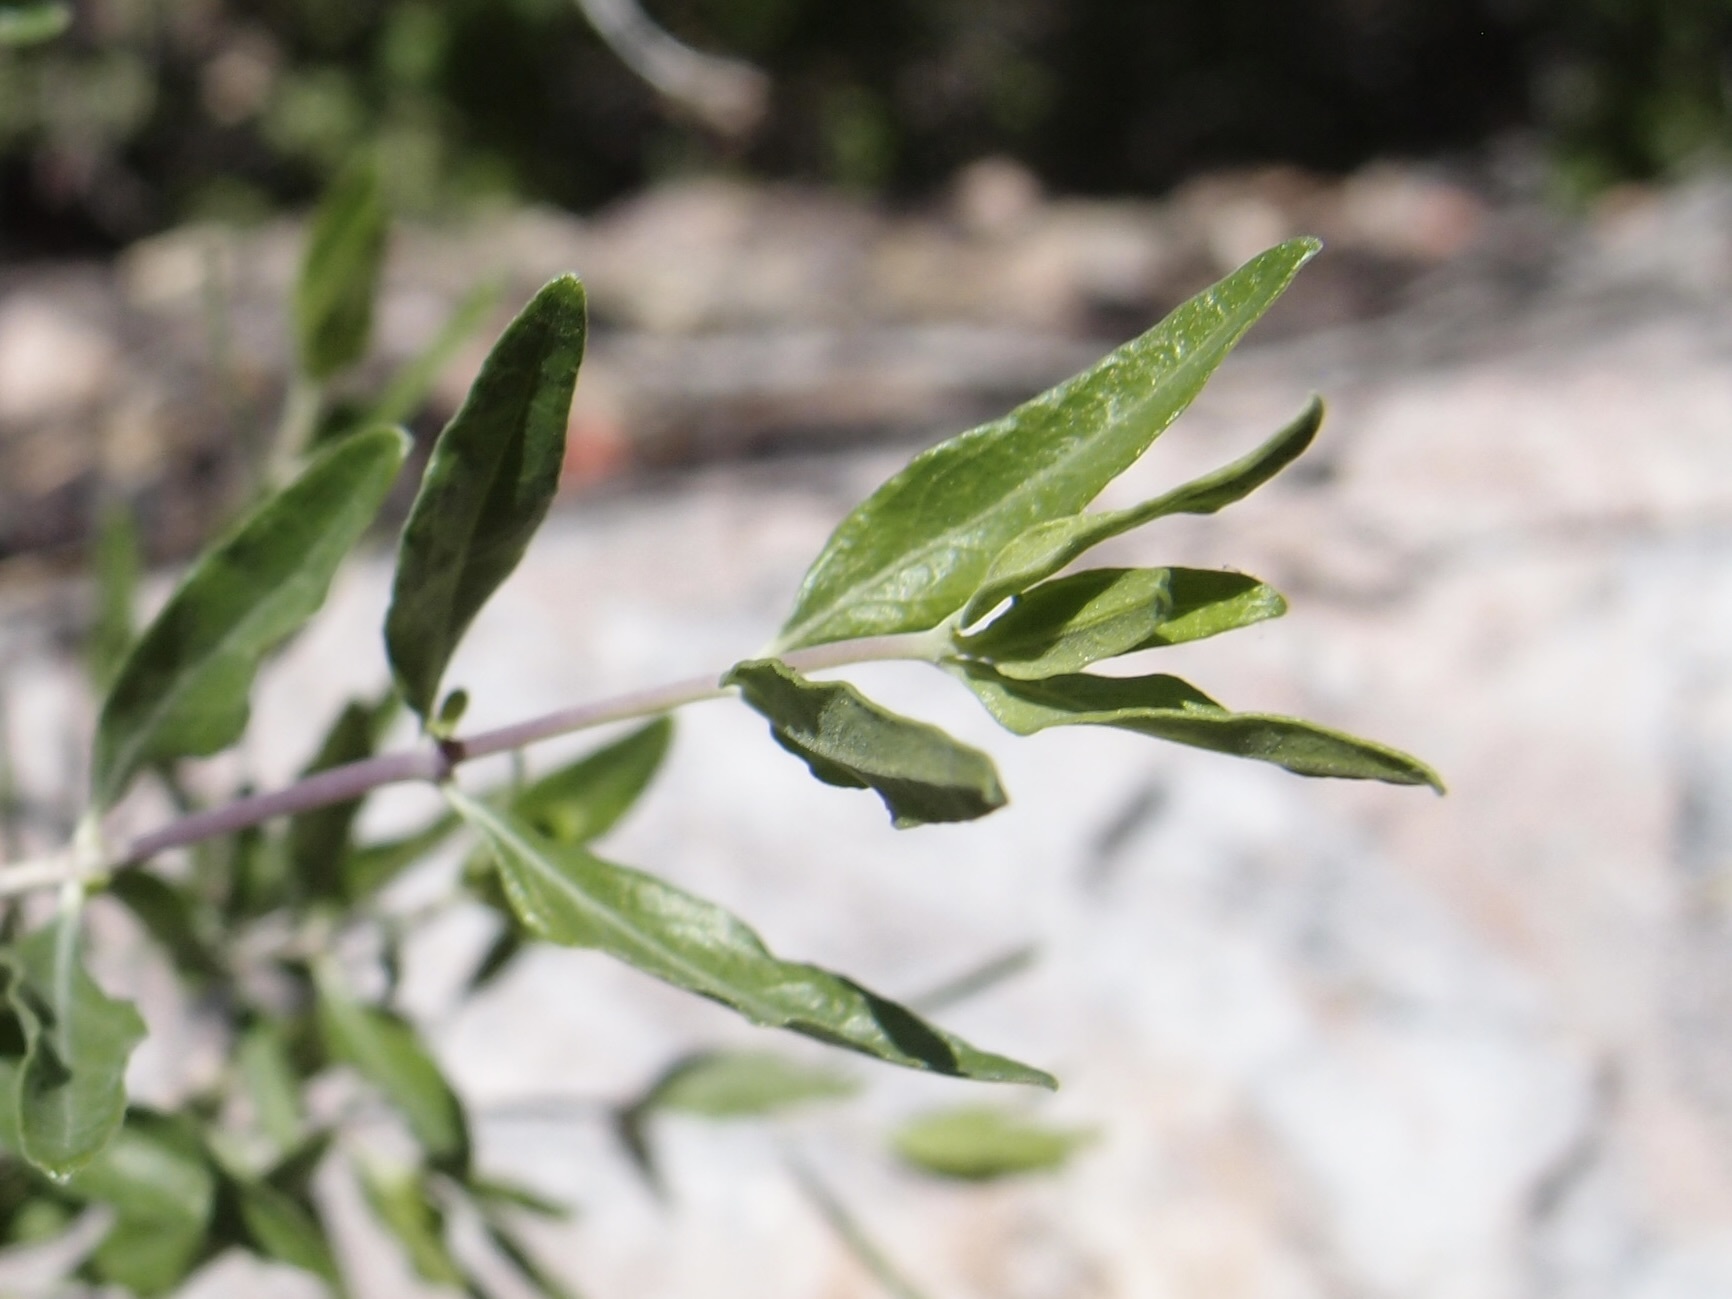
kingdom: Plantae
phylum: Tracheophyta
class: Magnoliopsida
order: Lamiales
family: Acanthaceae
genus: Holographis
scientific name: Holographis virgata
